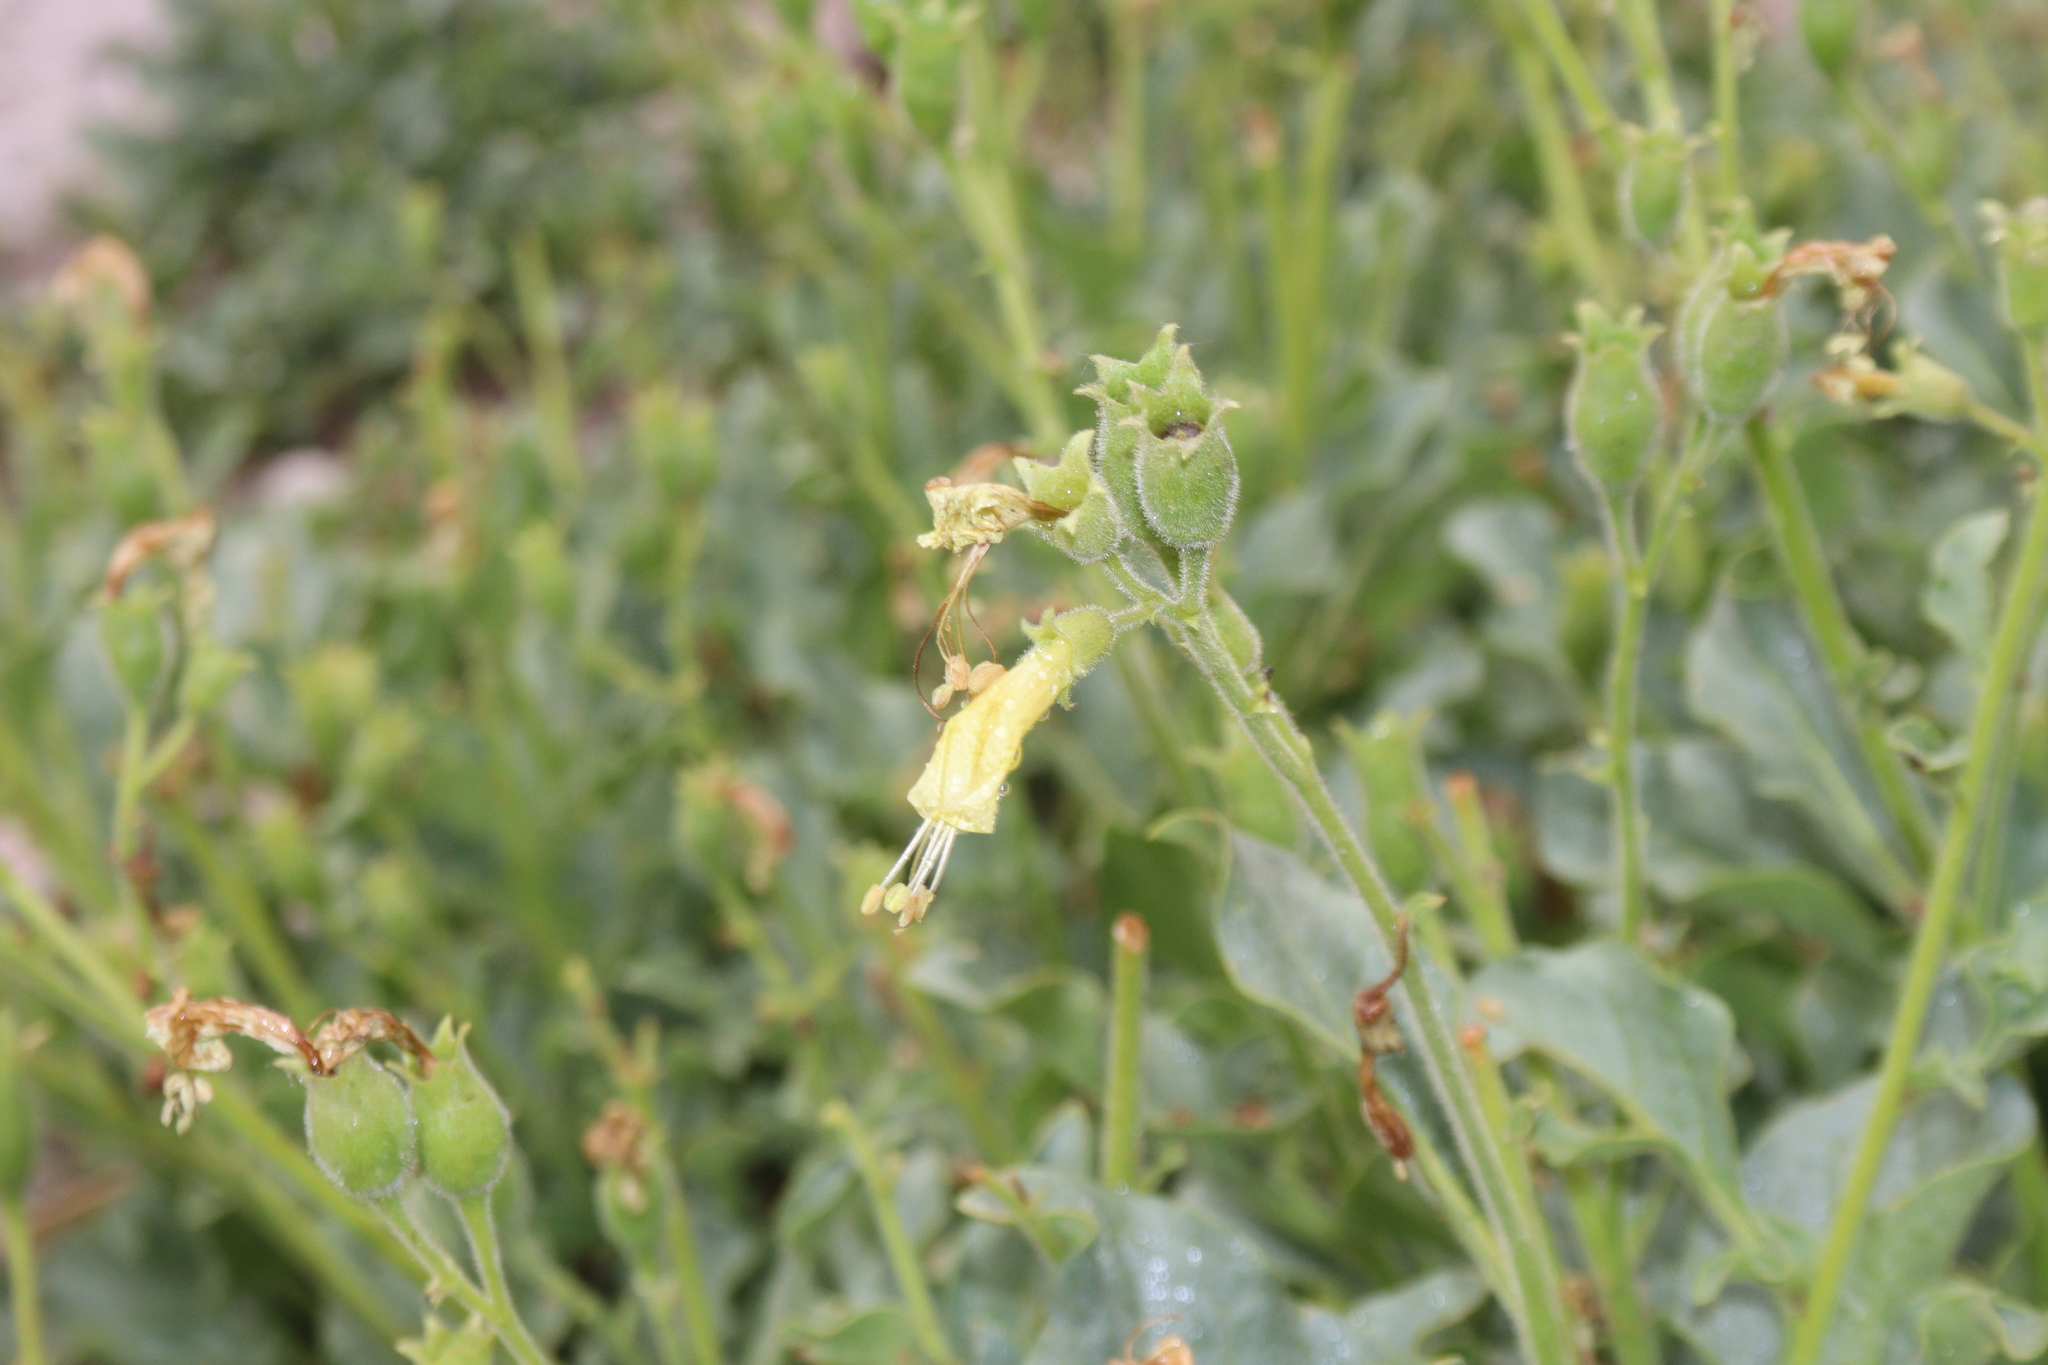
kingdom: Plantae
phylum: Tracheophyta
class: Magnoliopsida
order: Solanales
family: Solanaceae
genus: Physochlaina
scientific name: Physochlaina praealta
